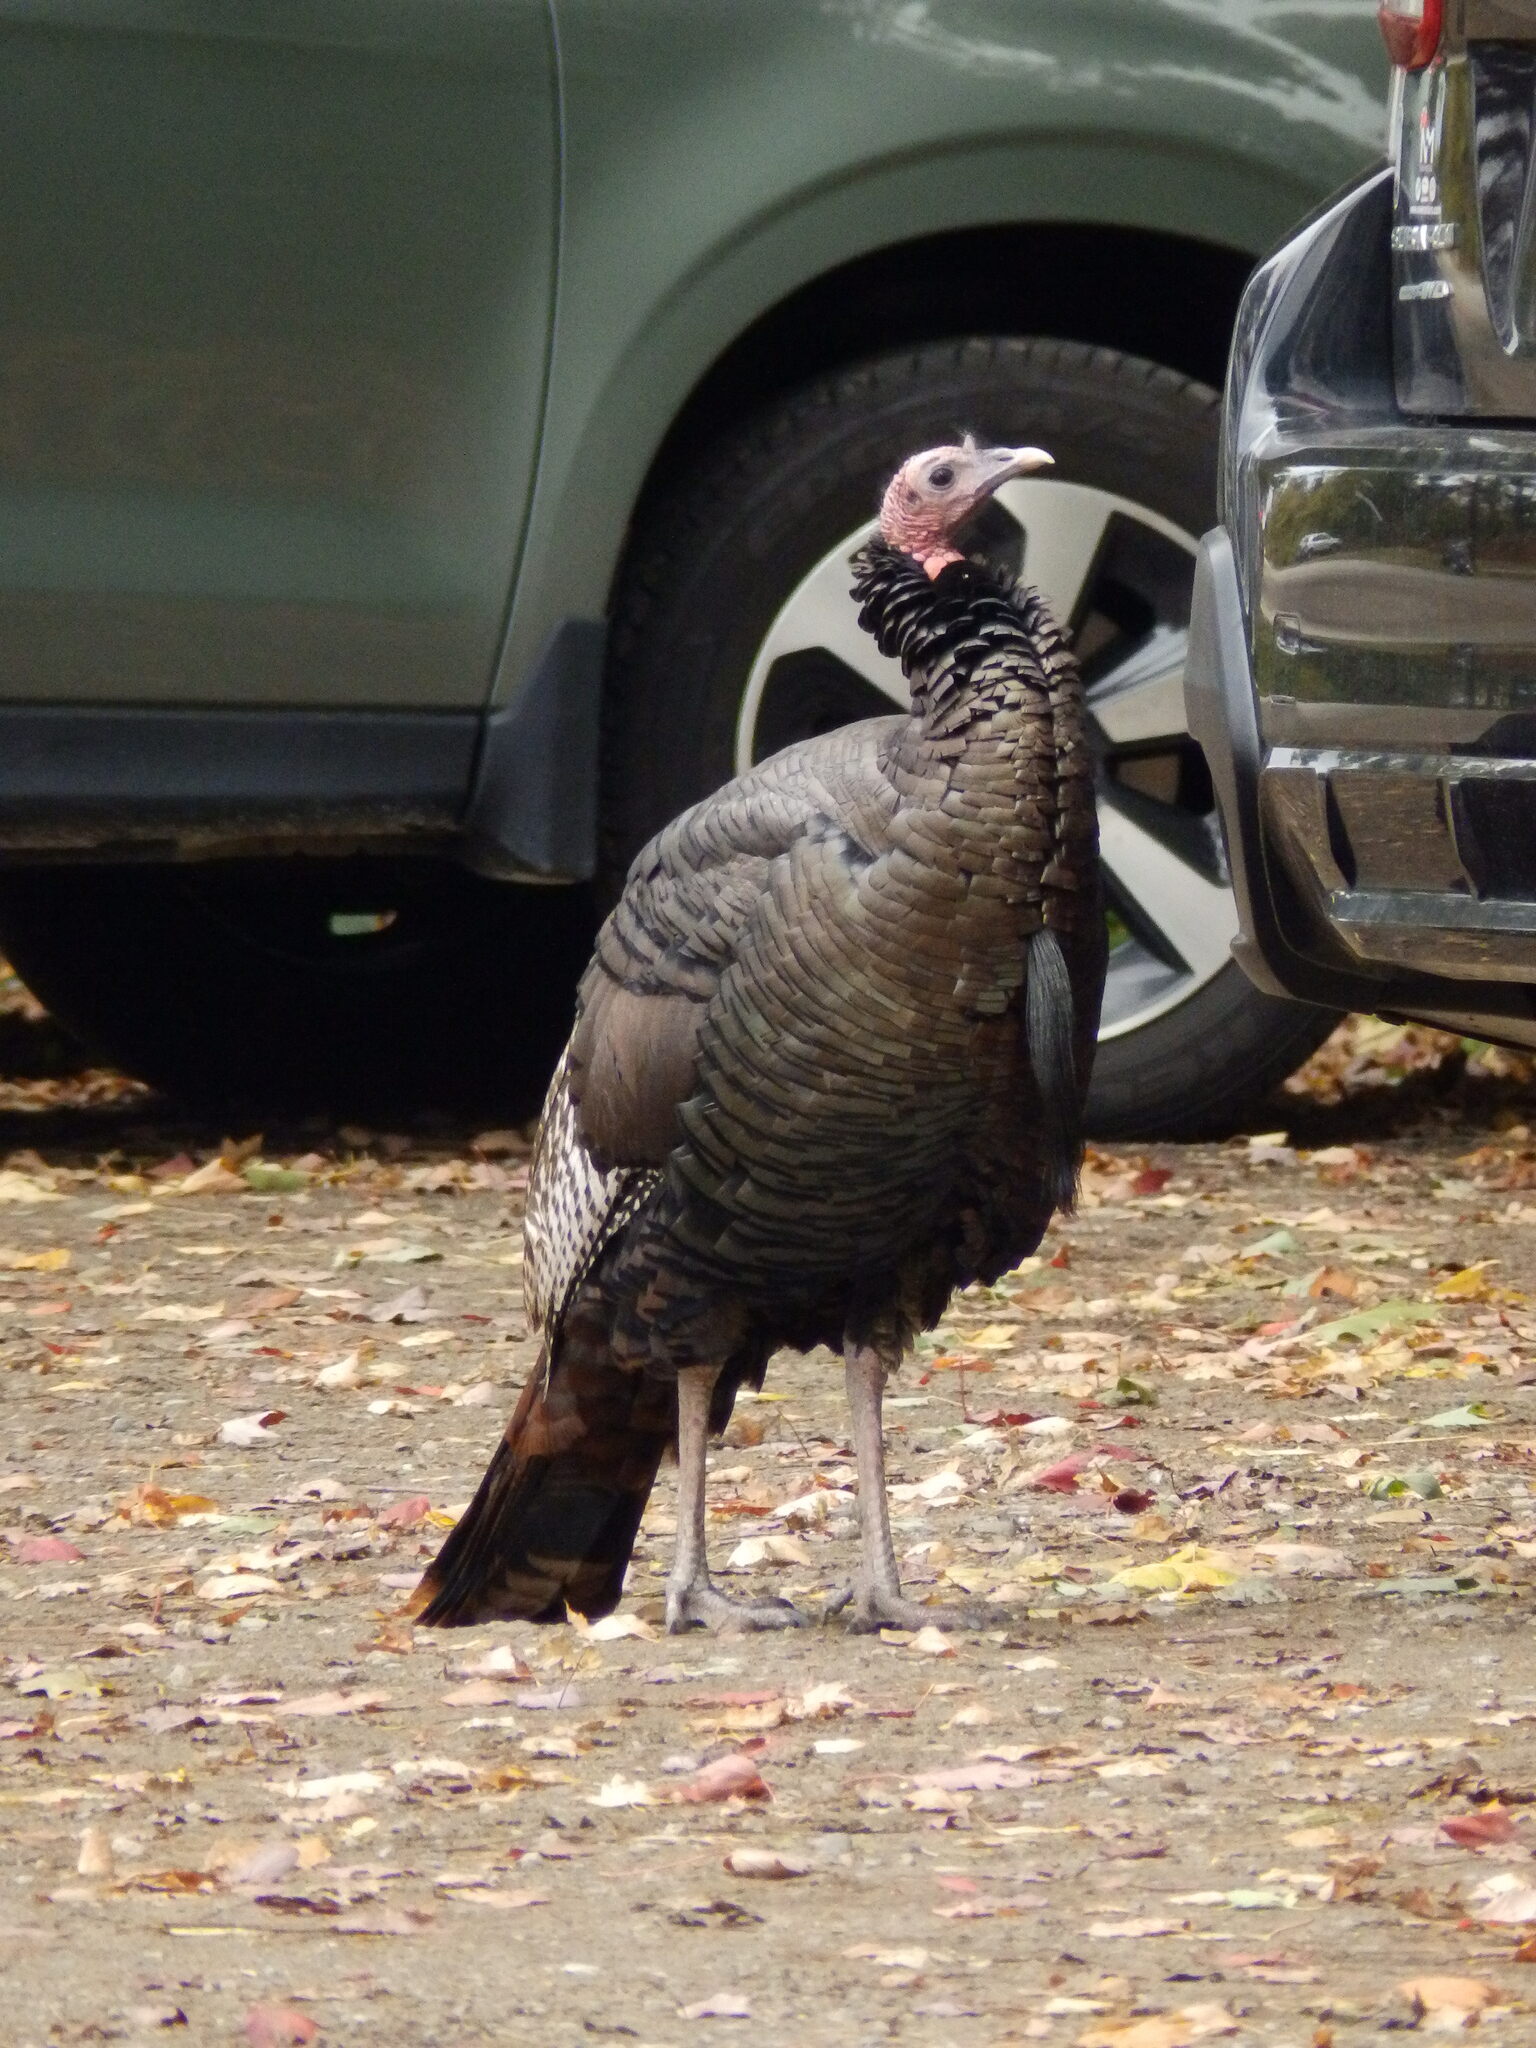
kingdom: Animalia
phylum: Chordata
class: Aves
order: Galliformes
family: Phasianidae
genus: Meleagris
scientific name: Meleagris gallopavo
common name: Wild turkey
